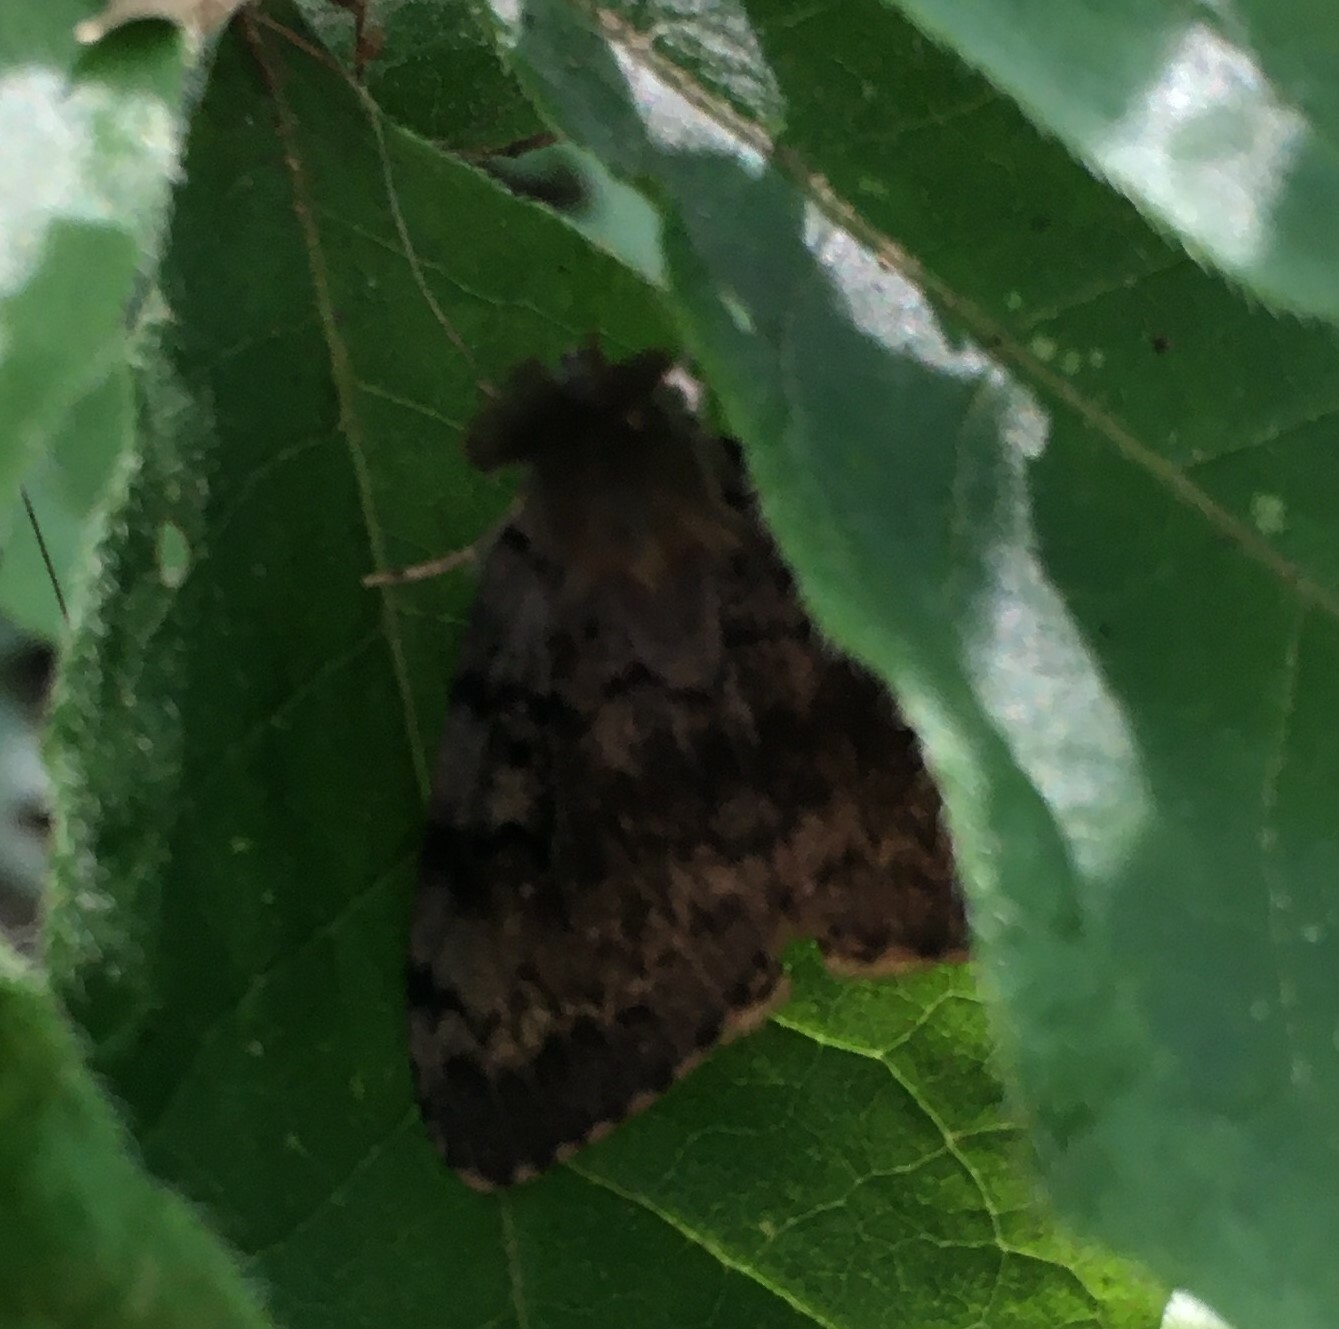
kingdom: Animalia
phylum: Arthropoda
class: Insecta
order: Lepidoptera
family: Erebidae
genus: Lymantria
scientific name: Lymantria dispar
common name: Gypsy moth
